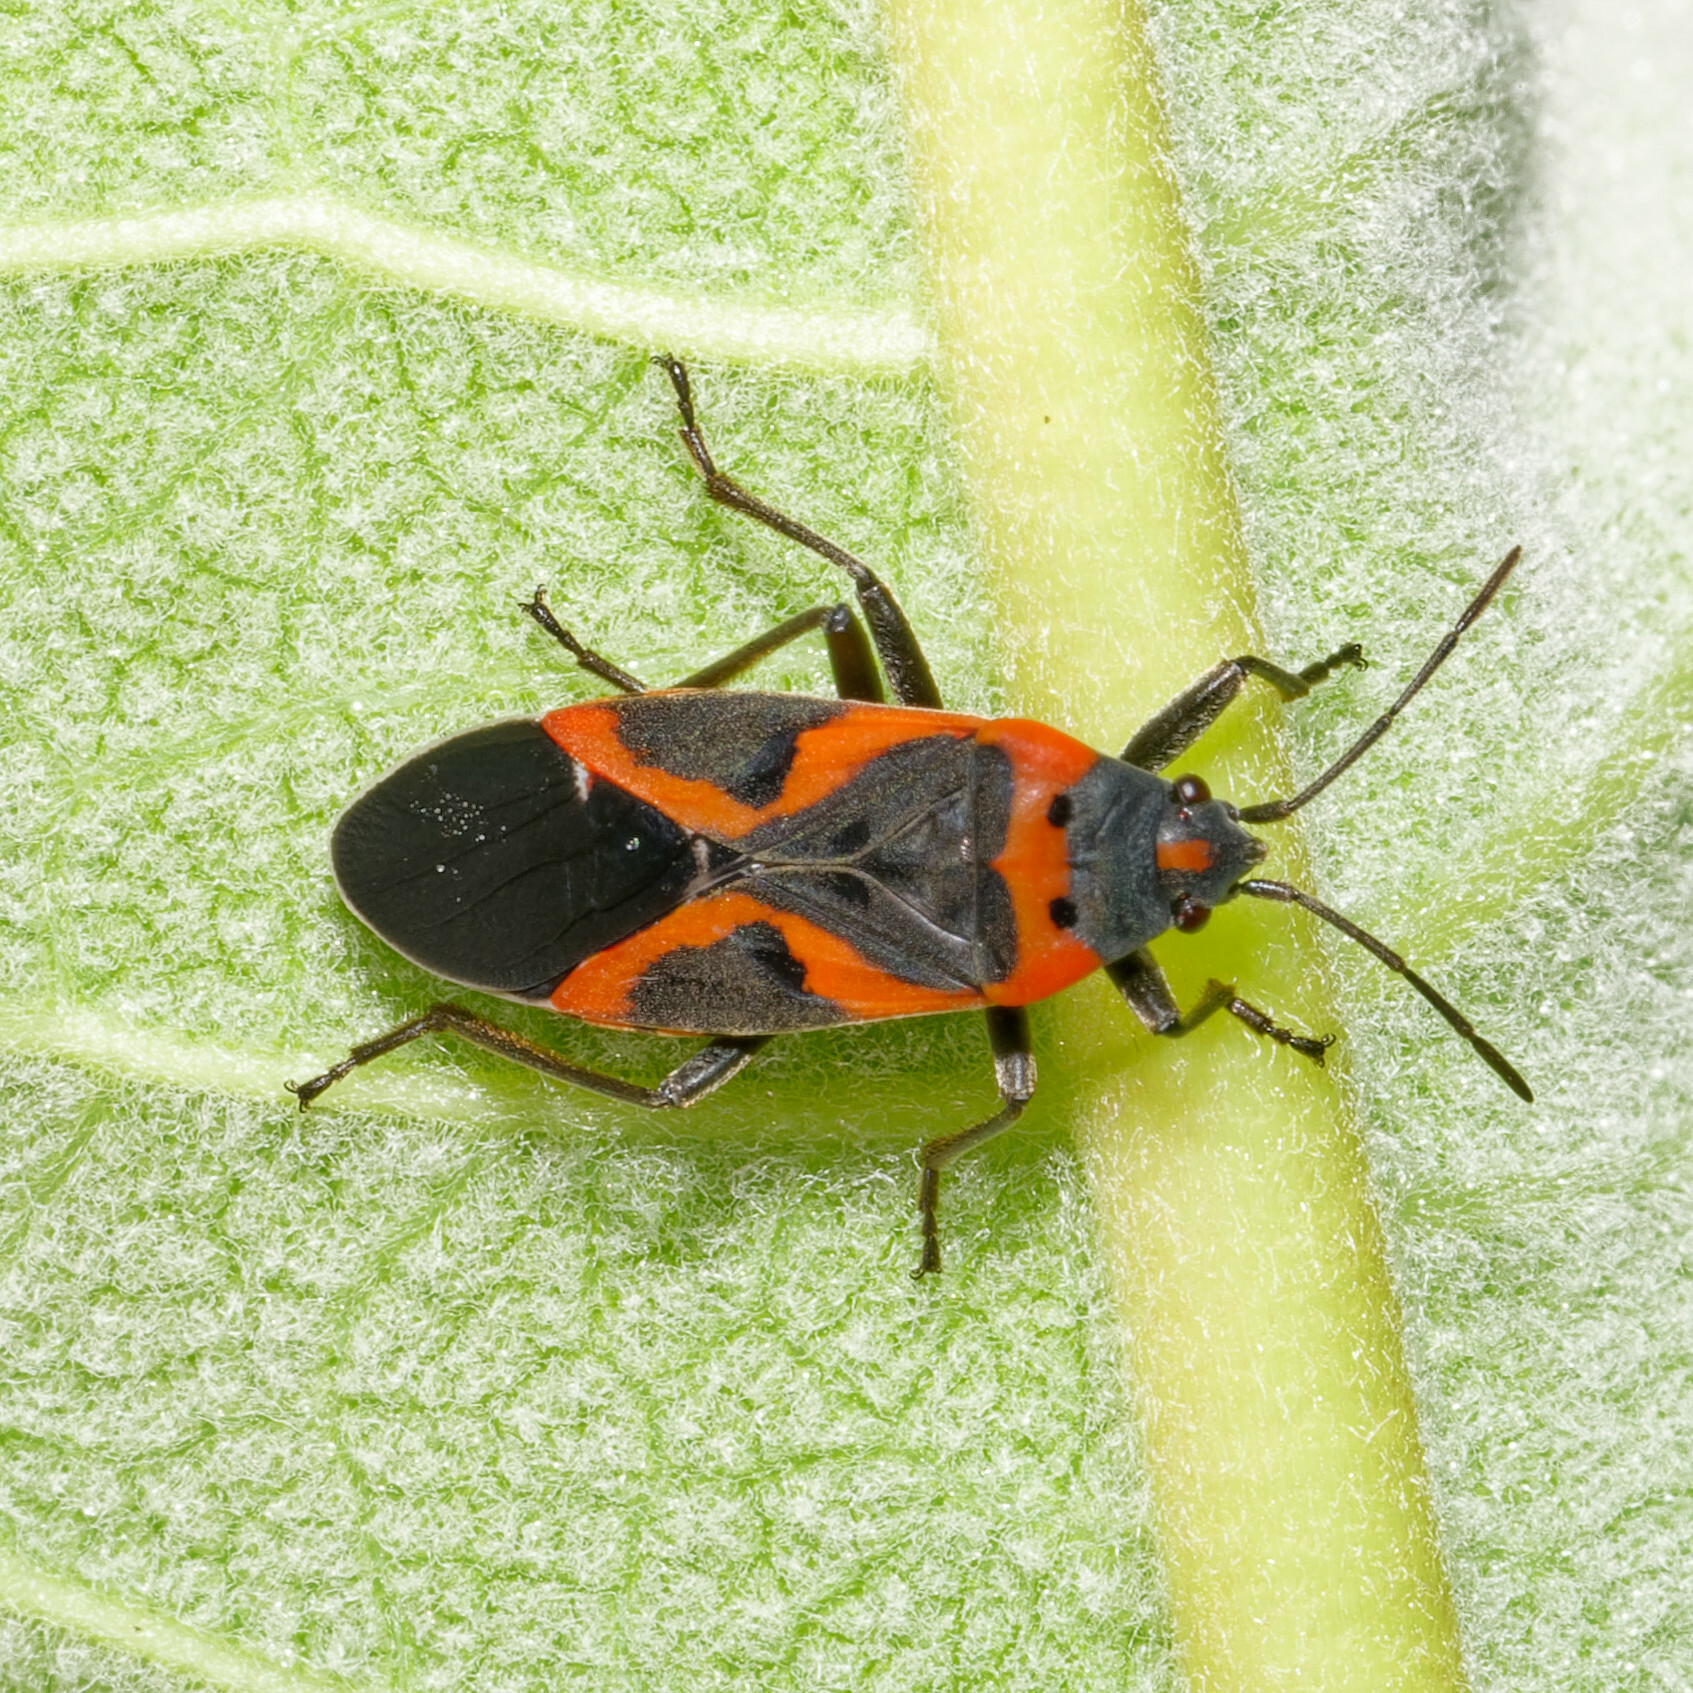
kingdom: Animalia
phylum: Arthropoda
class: Insecta
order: Hemiptera
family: Lygaeidae
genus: Lygaeus
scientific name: Lygaeus kalmii
